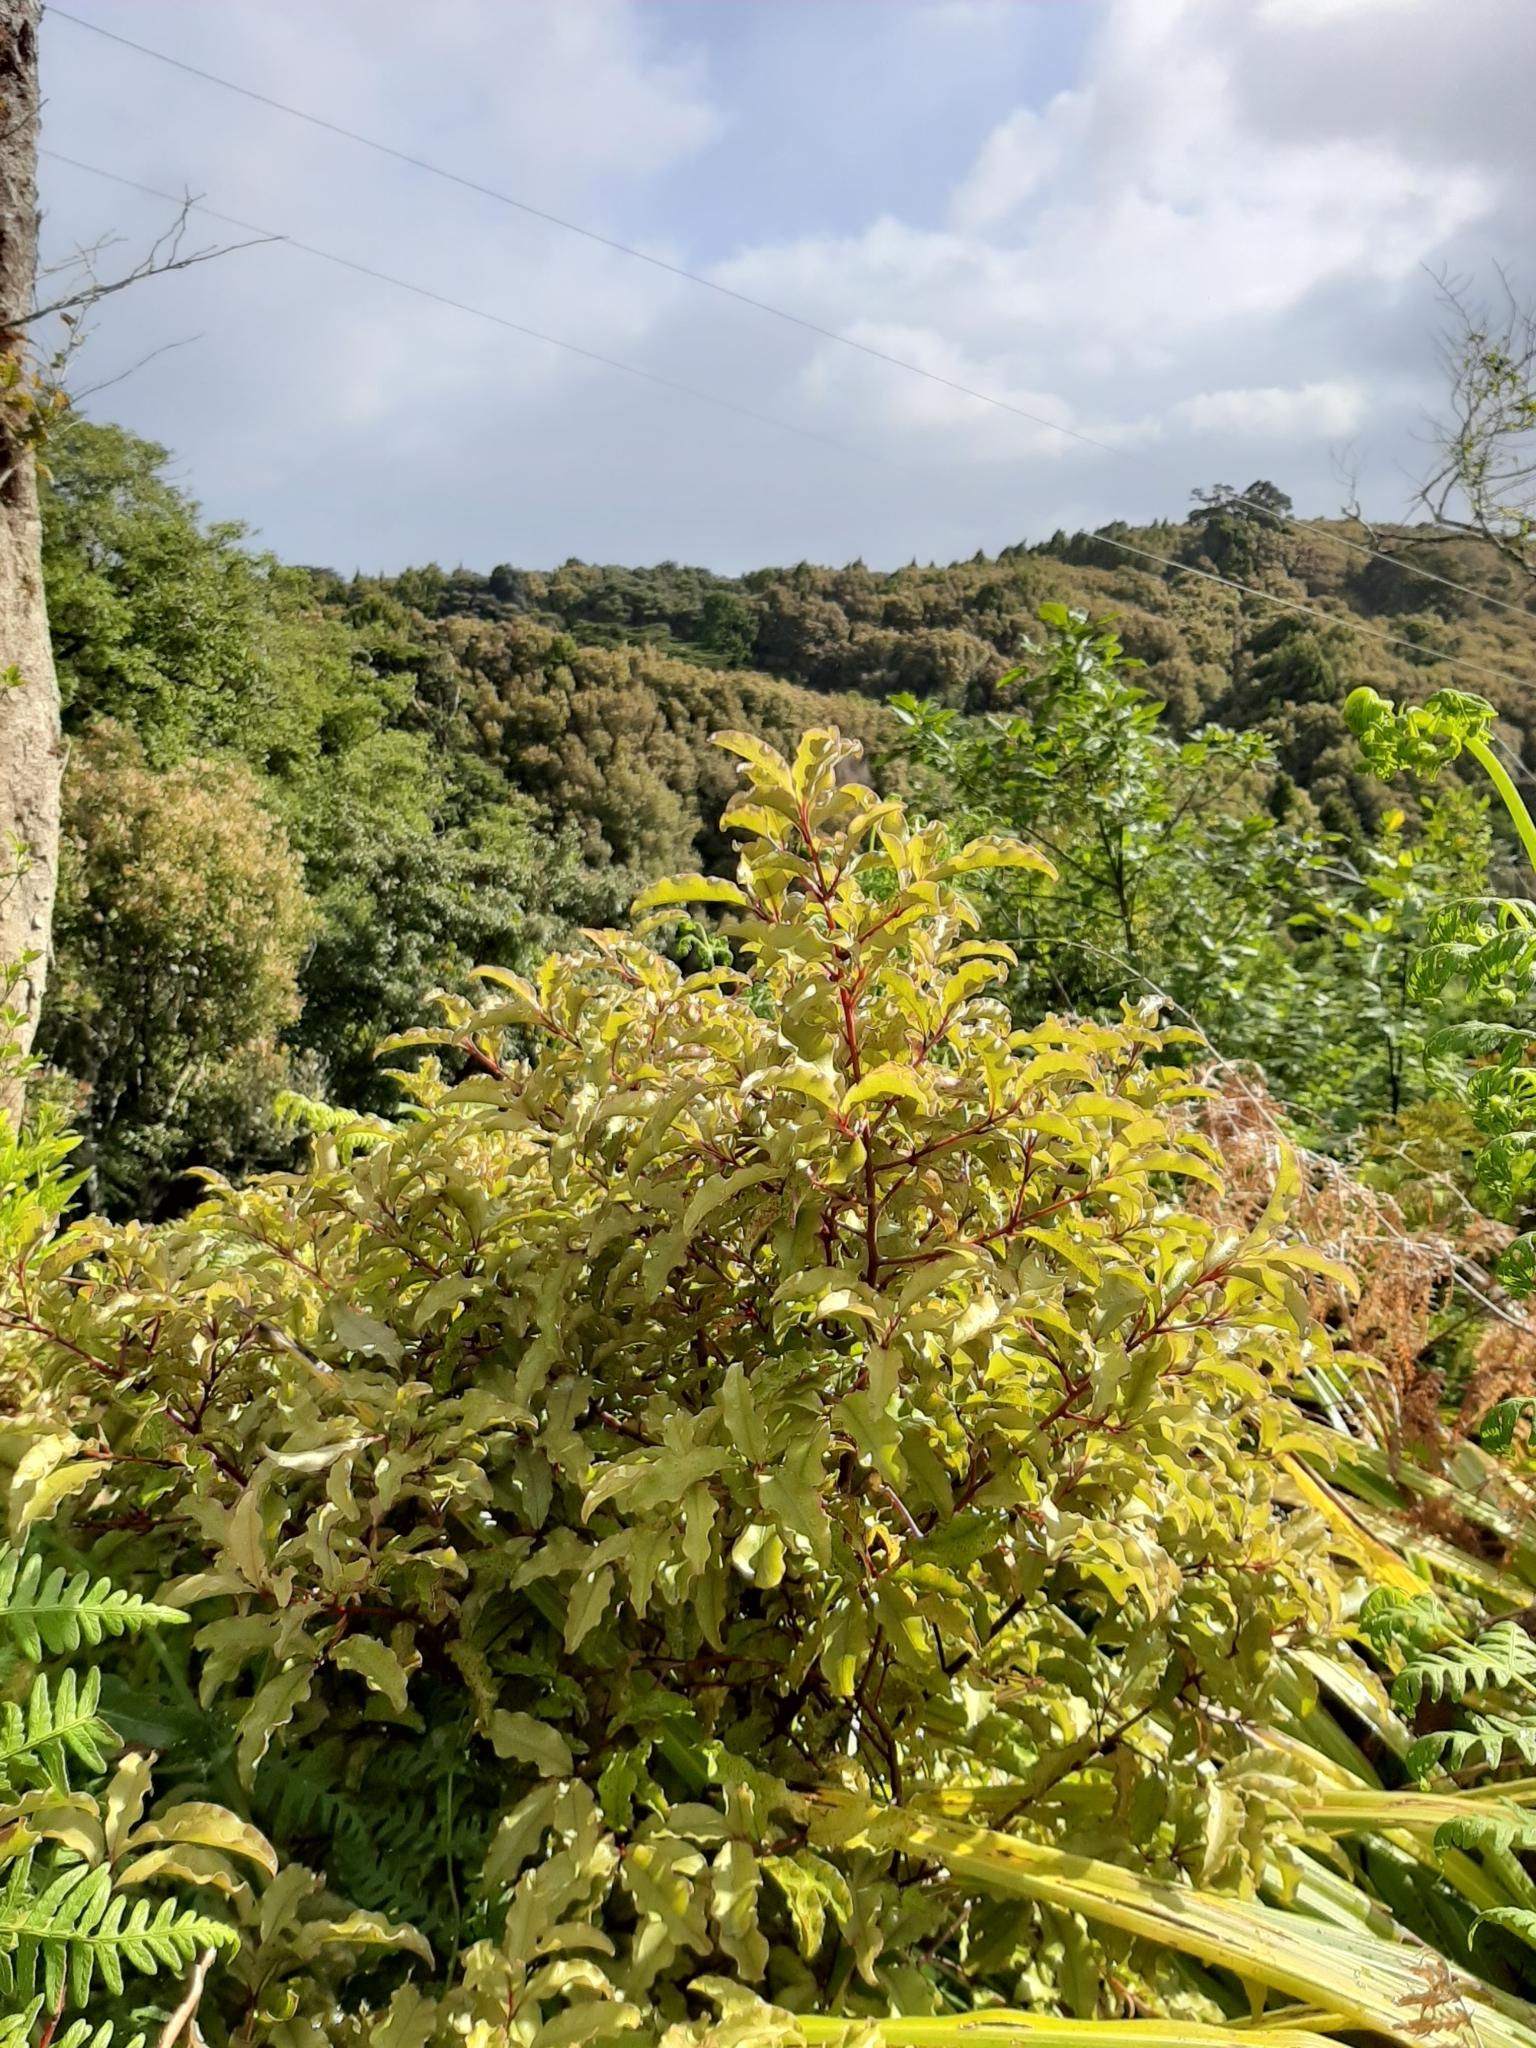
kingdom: Plantae
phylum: Tracheophyta
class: Magnoliopsida
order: Ericales
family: Primulaceae
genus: Myrsine
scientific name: Myrsine australis
